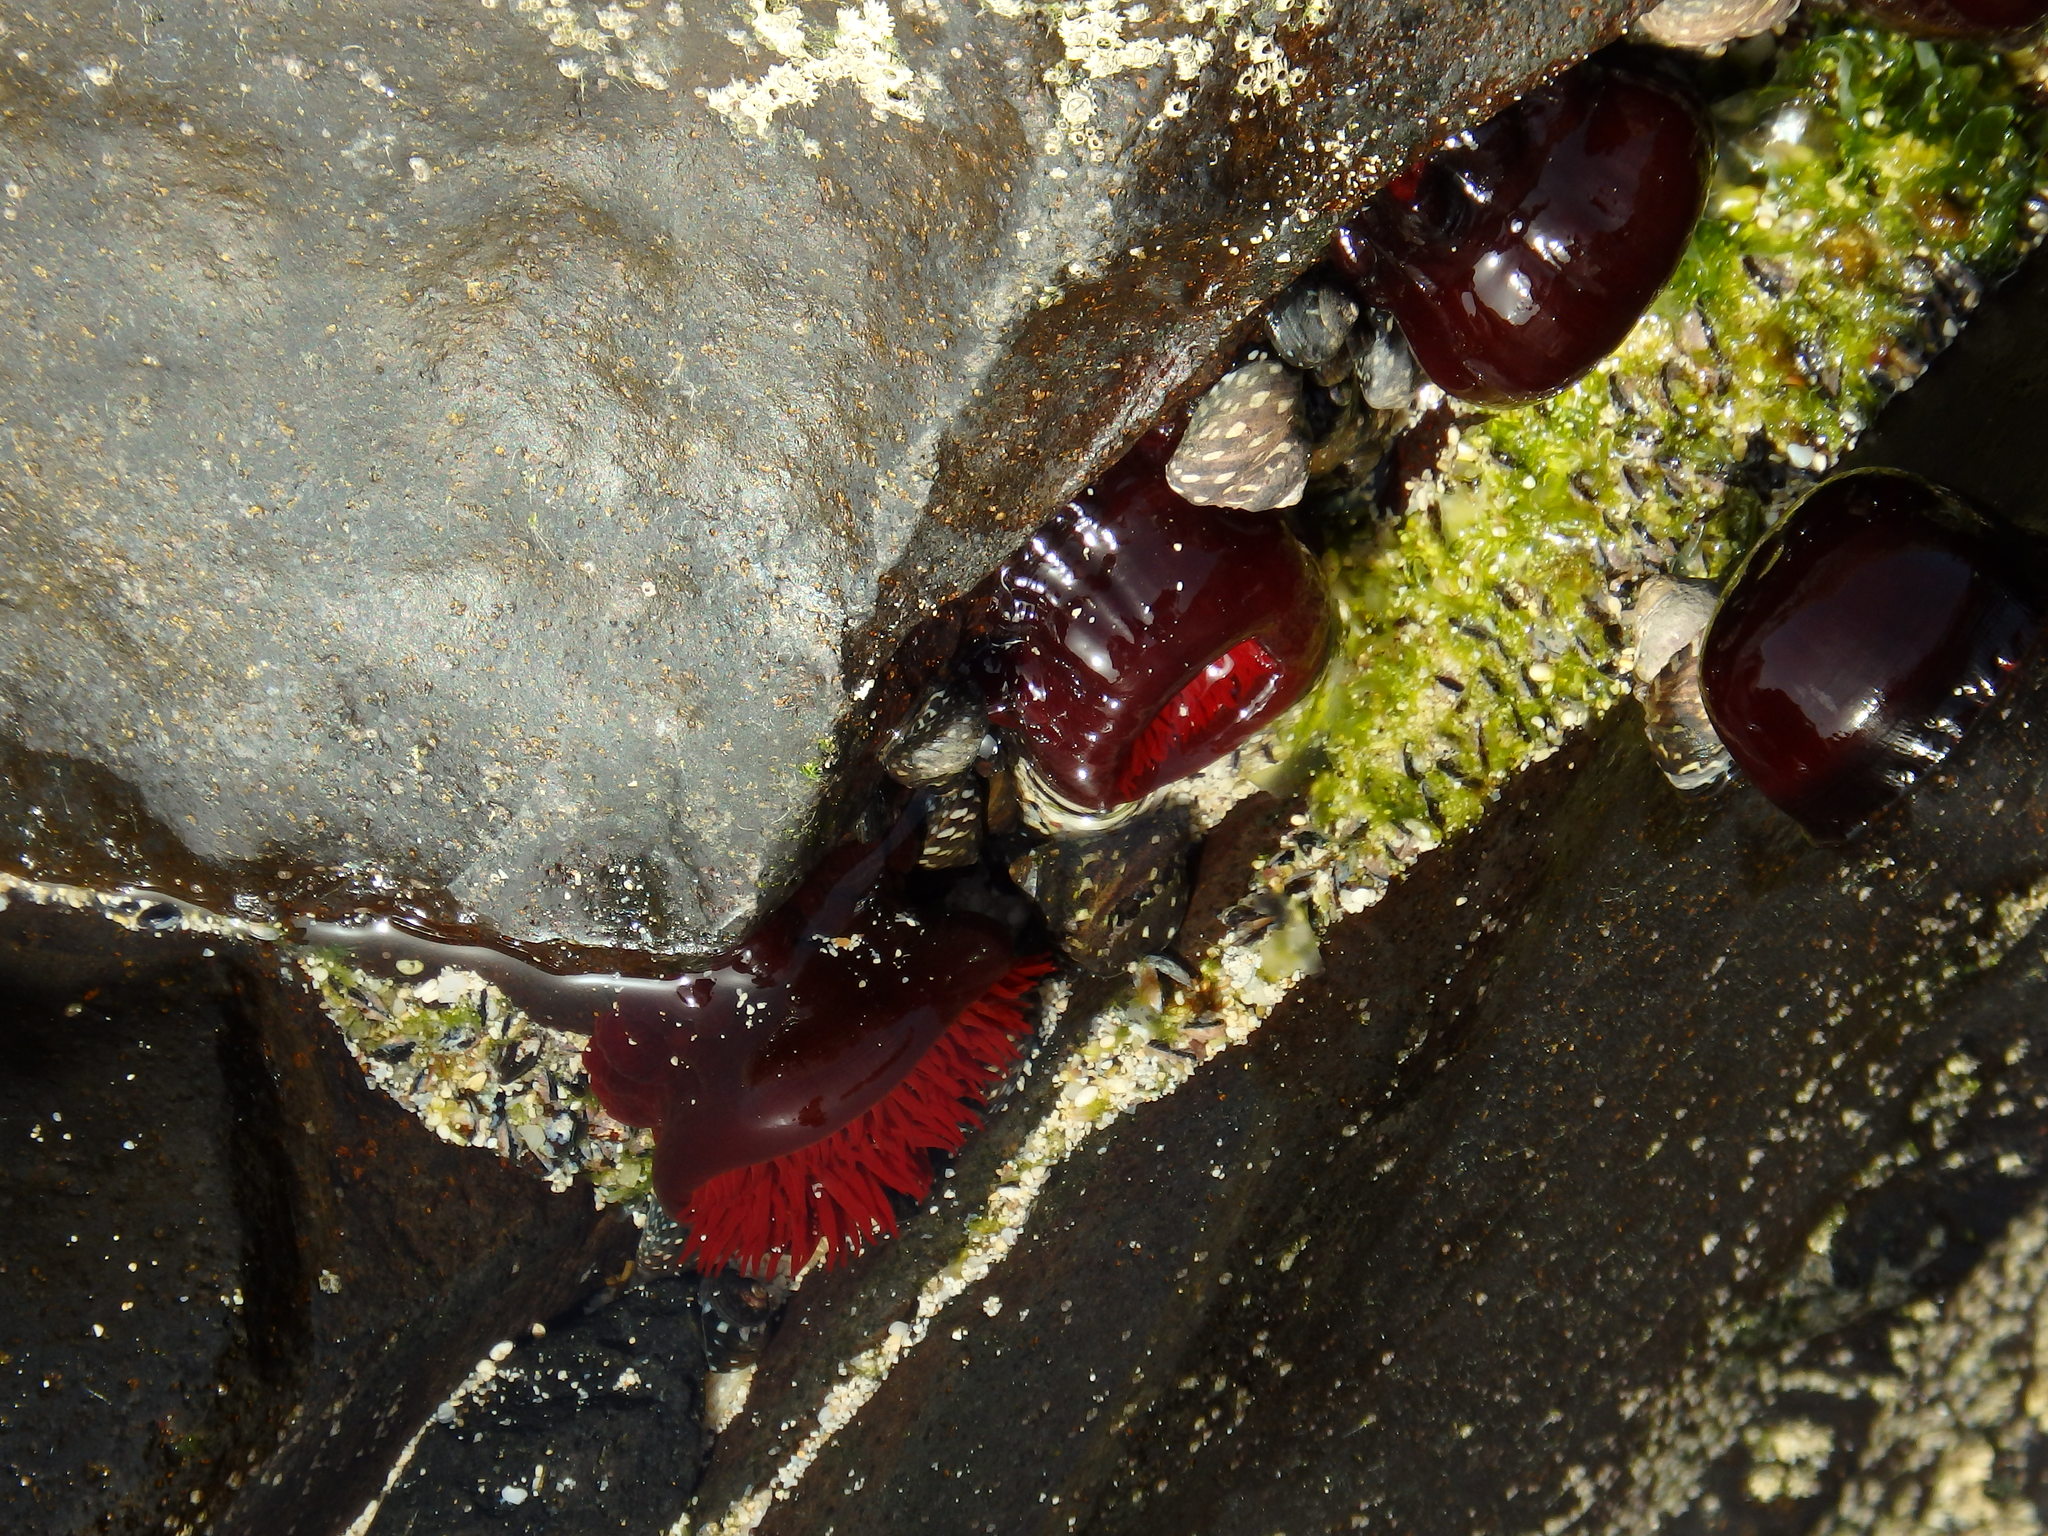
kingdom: Animalia
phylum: Cnidaria
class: Anthozoa
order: Actiniaria
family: Actiniidae
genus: Actinia
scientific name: Actinia tabella
